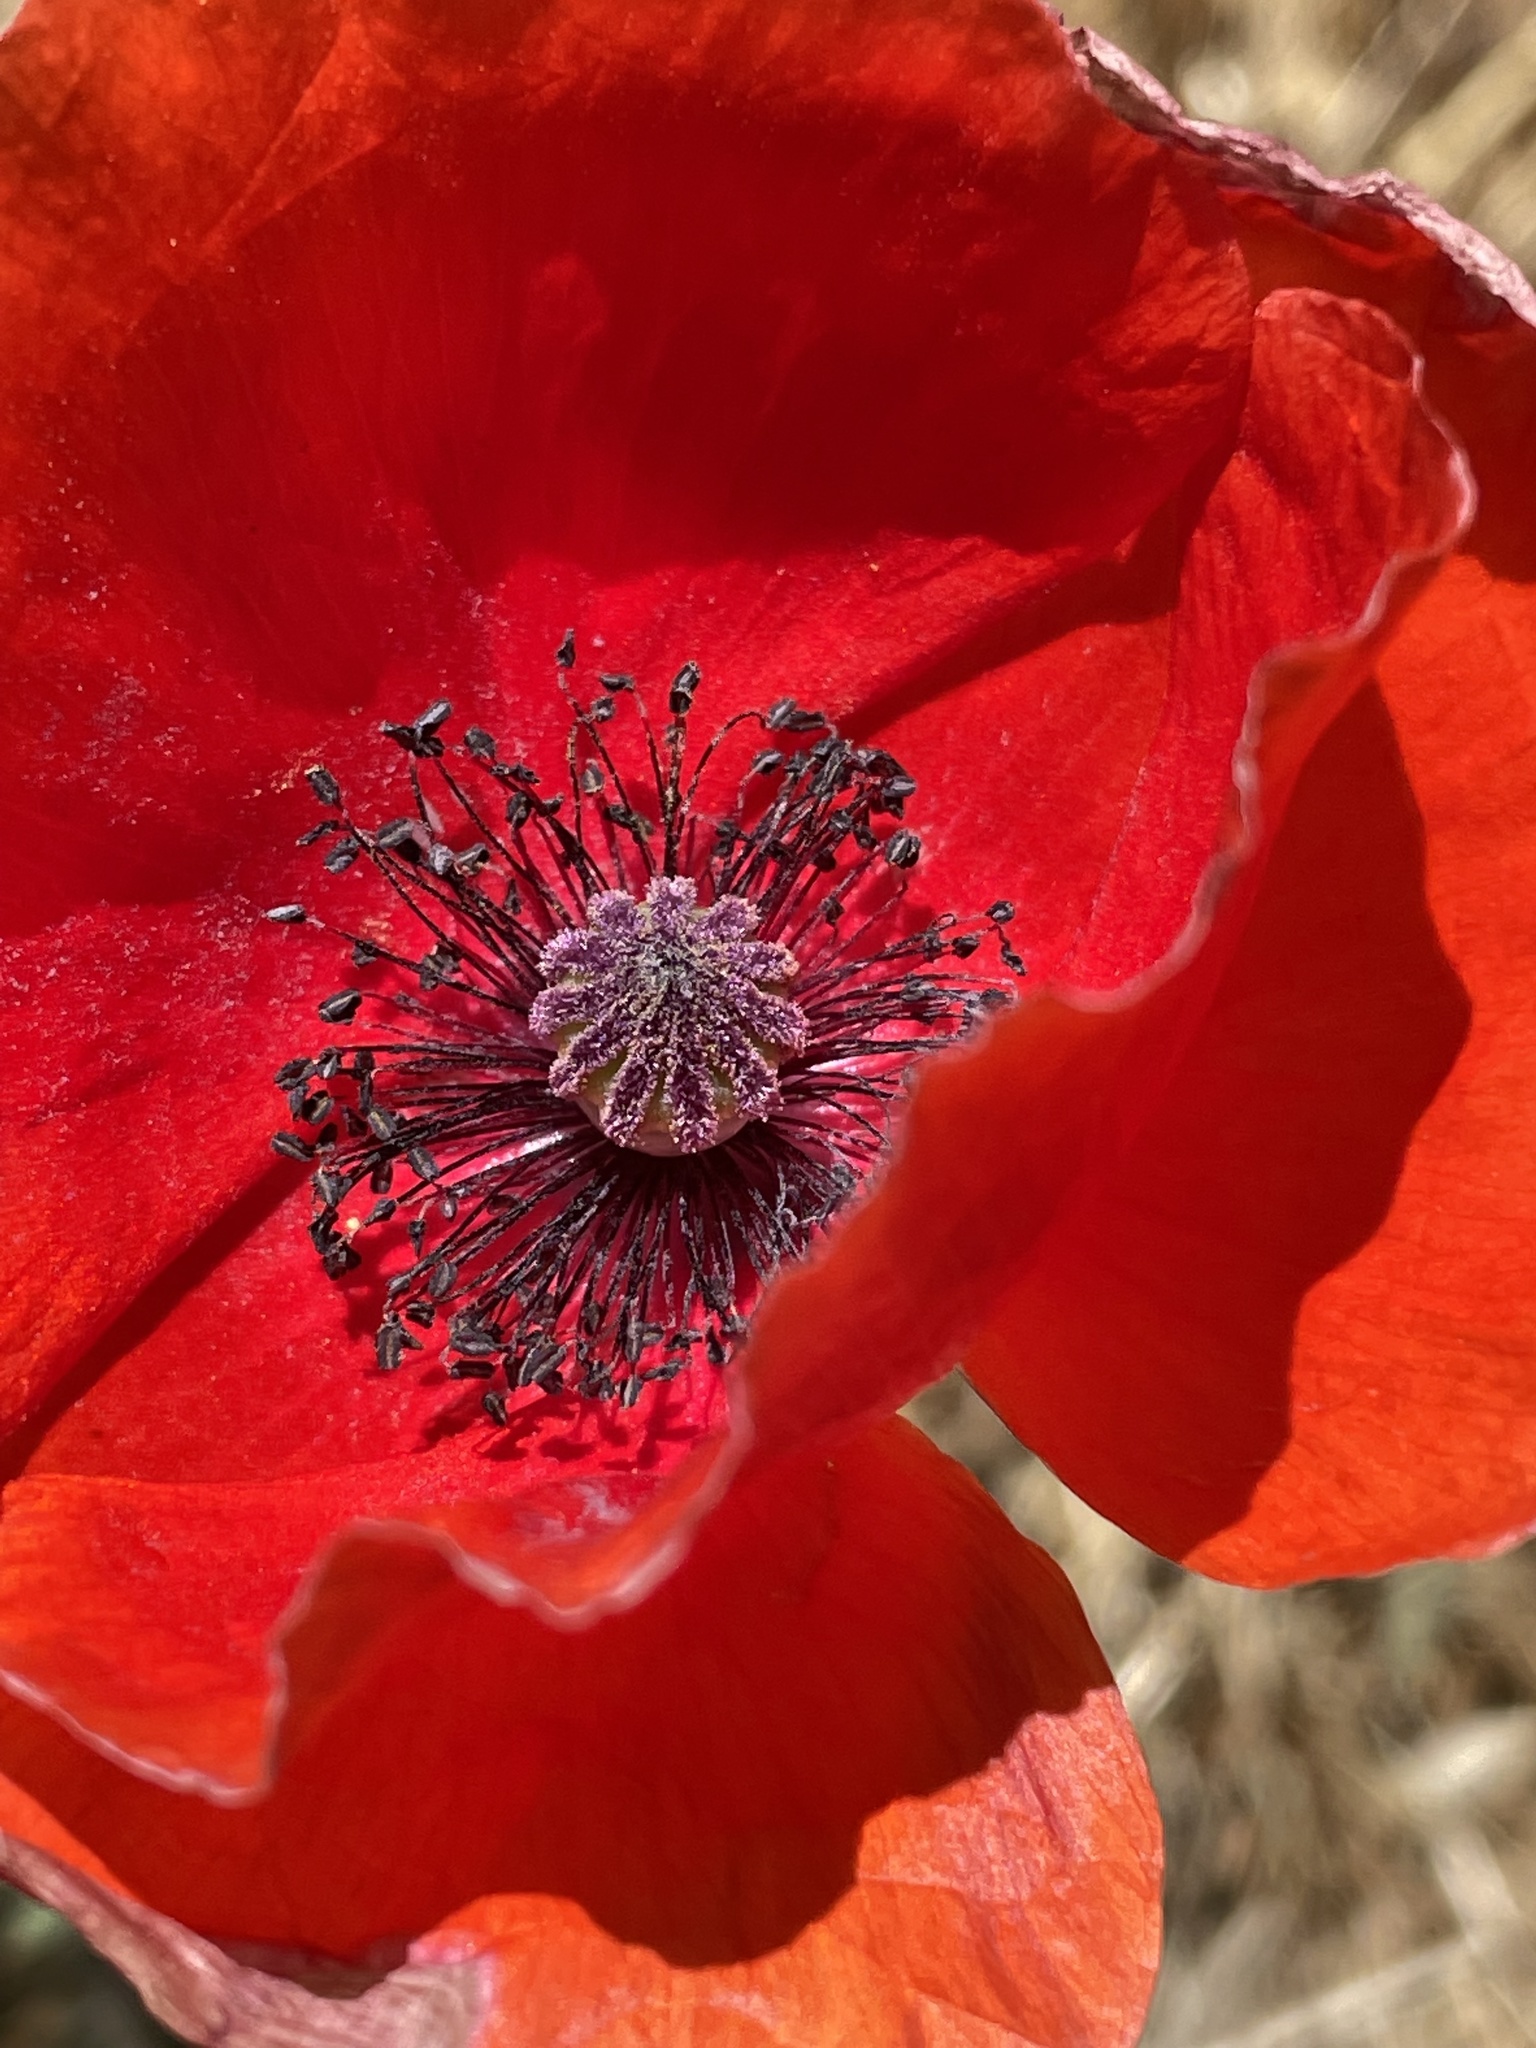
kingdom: Plantae
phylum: Tracheophyta
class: Magnoliopsida
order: Ranunculales
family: Papaveraceae
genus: Papaver
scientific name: Papaver rhoeas
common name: Corn poppy
